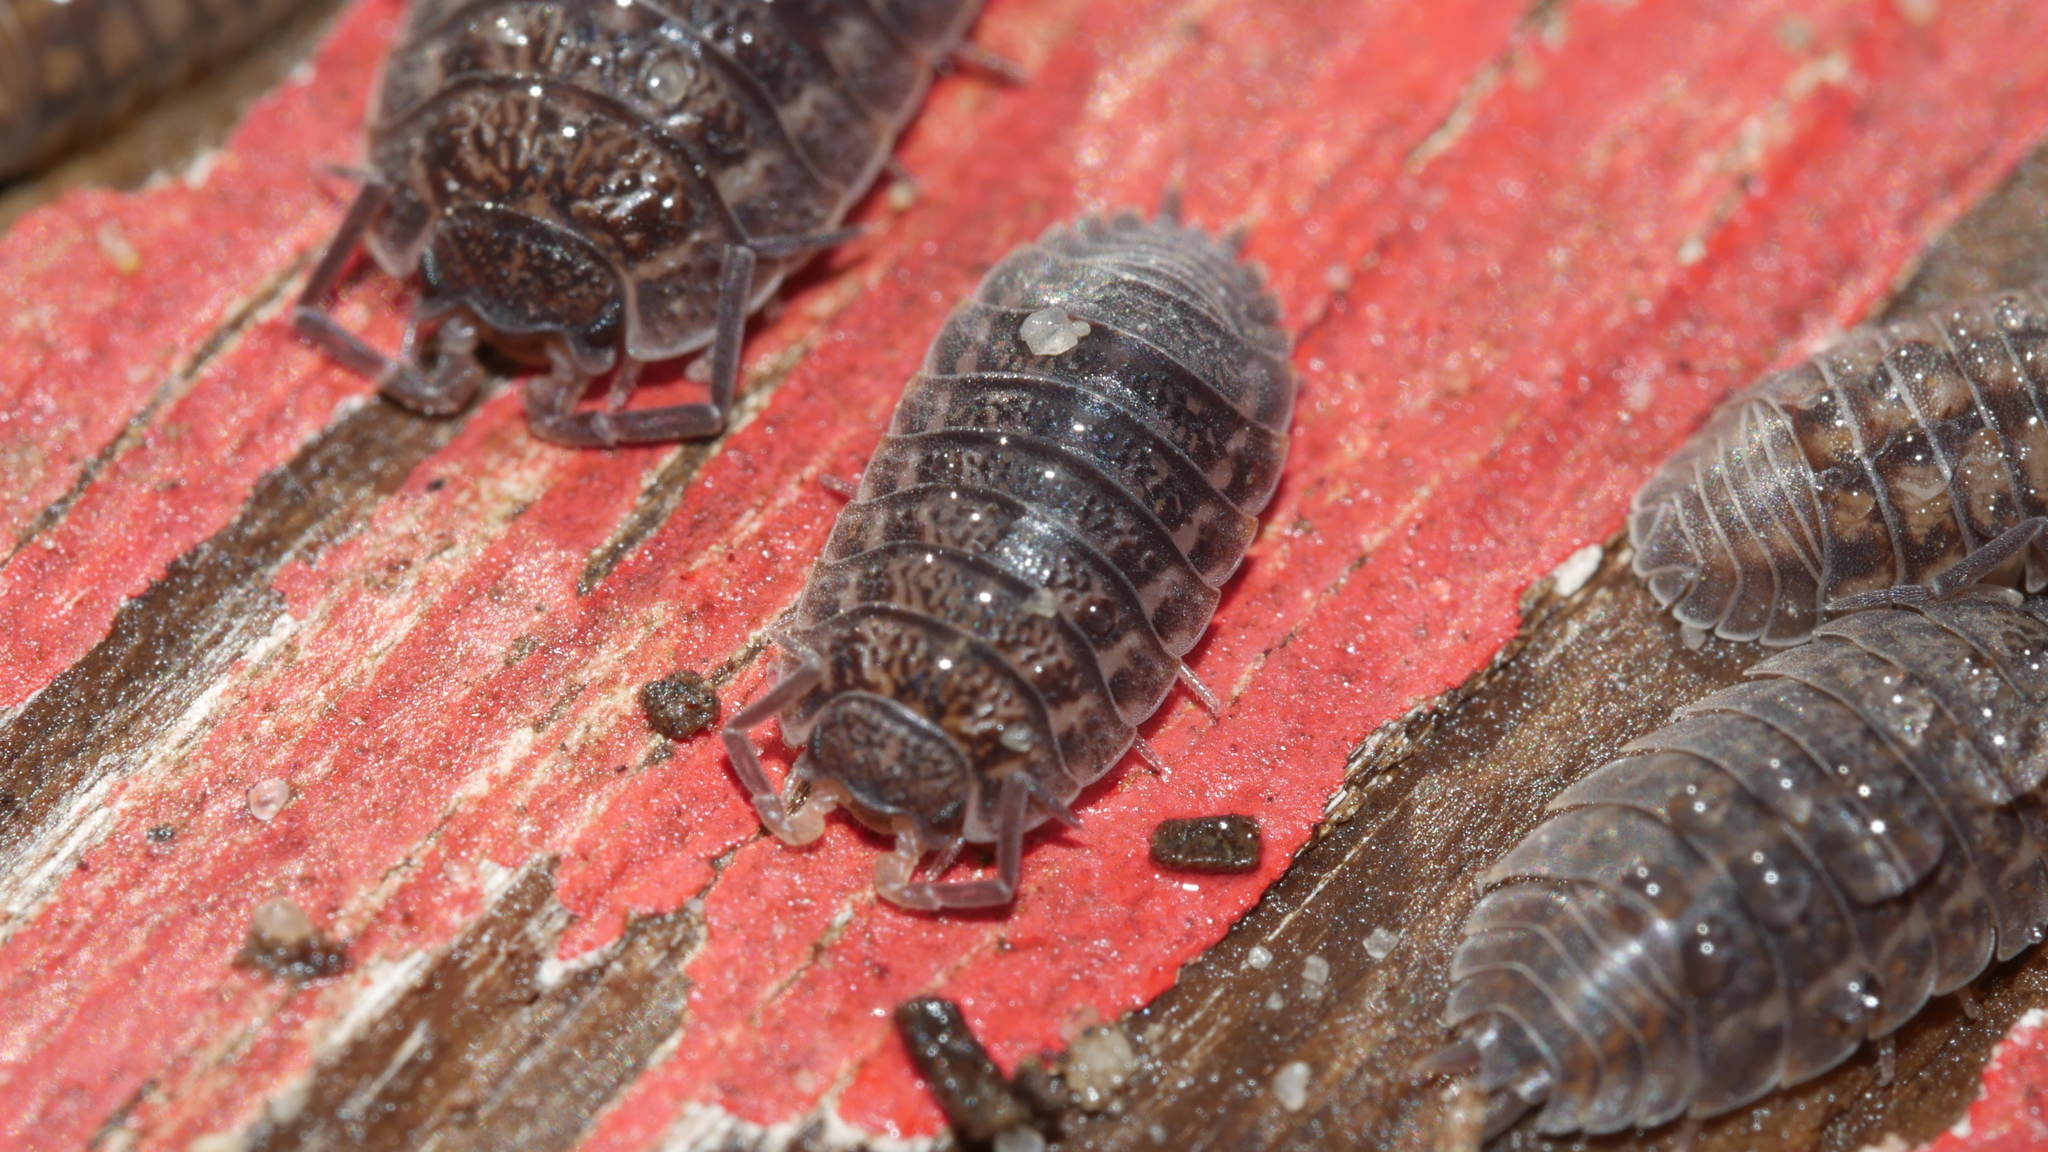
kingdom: Animalia
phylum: Arthropoda
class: Malacostraca
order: Isopoda
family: Trachelipodidae
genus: Trachelipus
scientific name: Trachelipus rathkii
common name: Isopod
